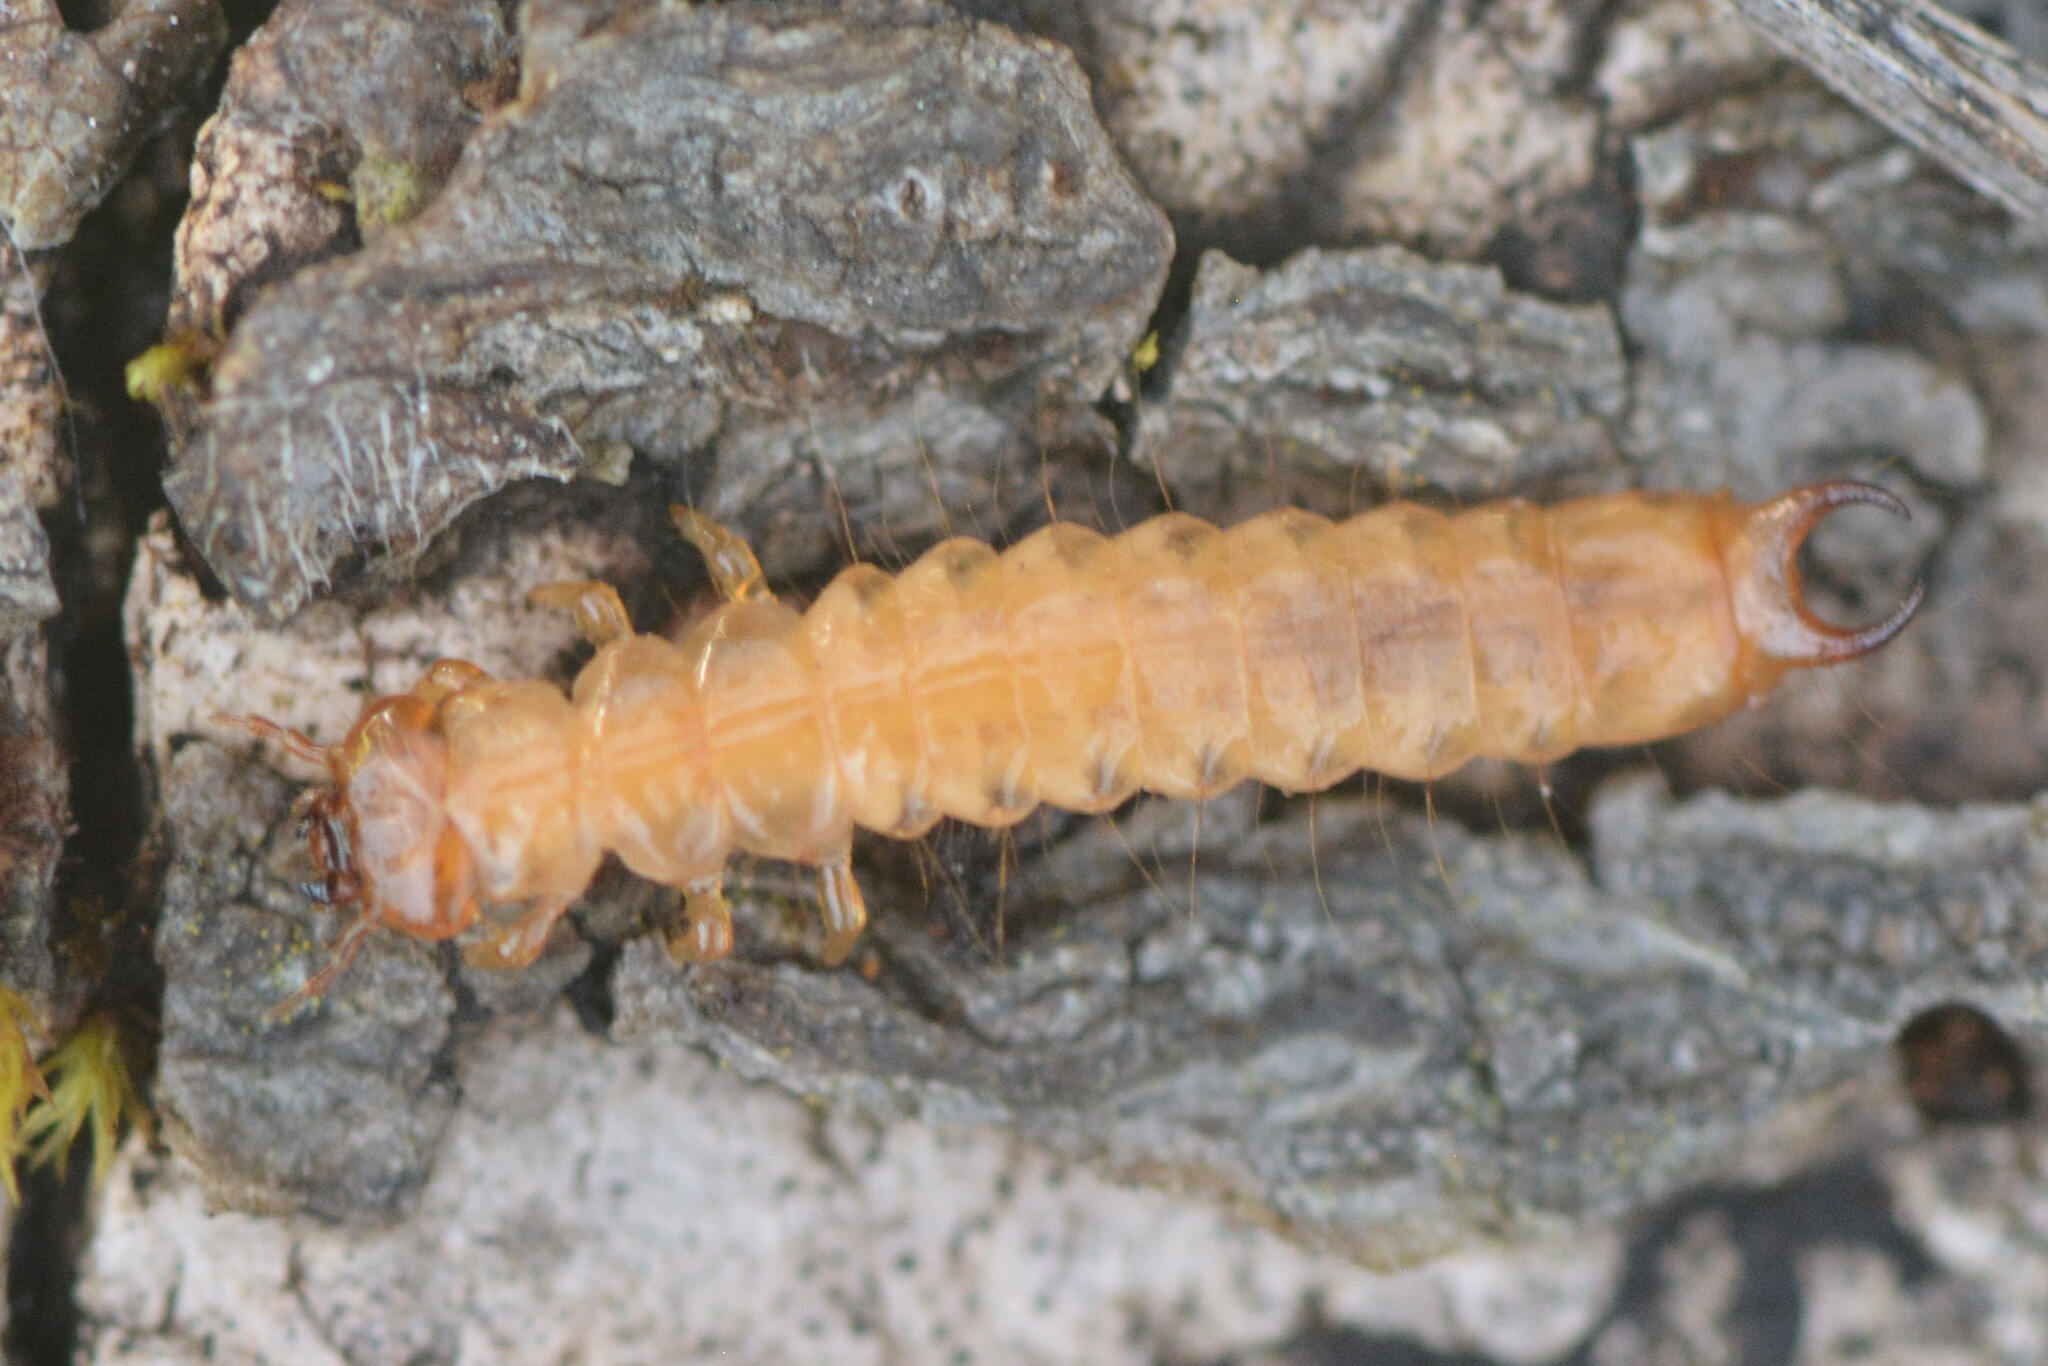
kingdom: Animalia
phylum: Arthropoda
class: Insecta
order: Coleoptera
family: Pyrochroidae
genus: Schizotus
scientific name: Schizotus pectinicornis
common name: Scarce cardinal beetle
